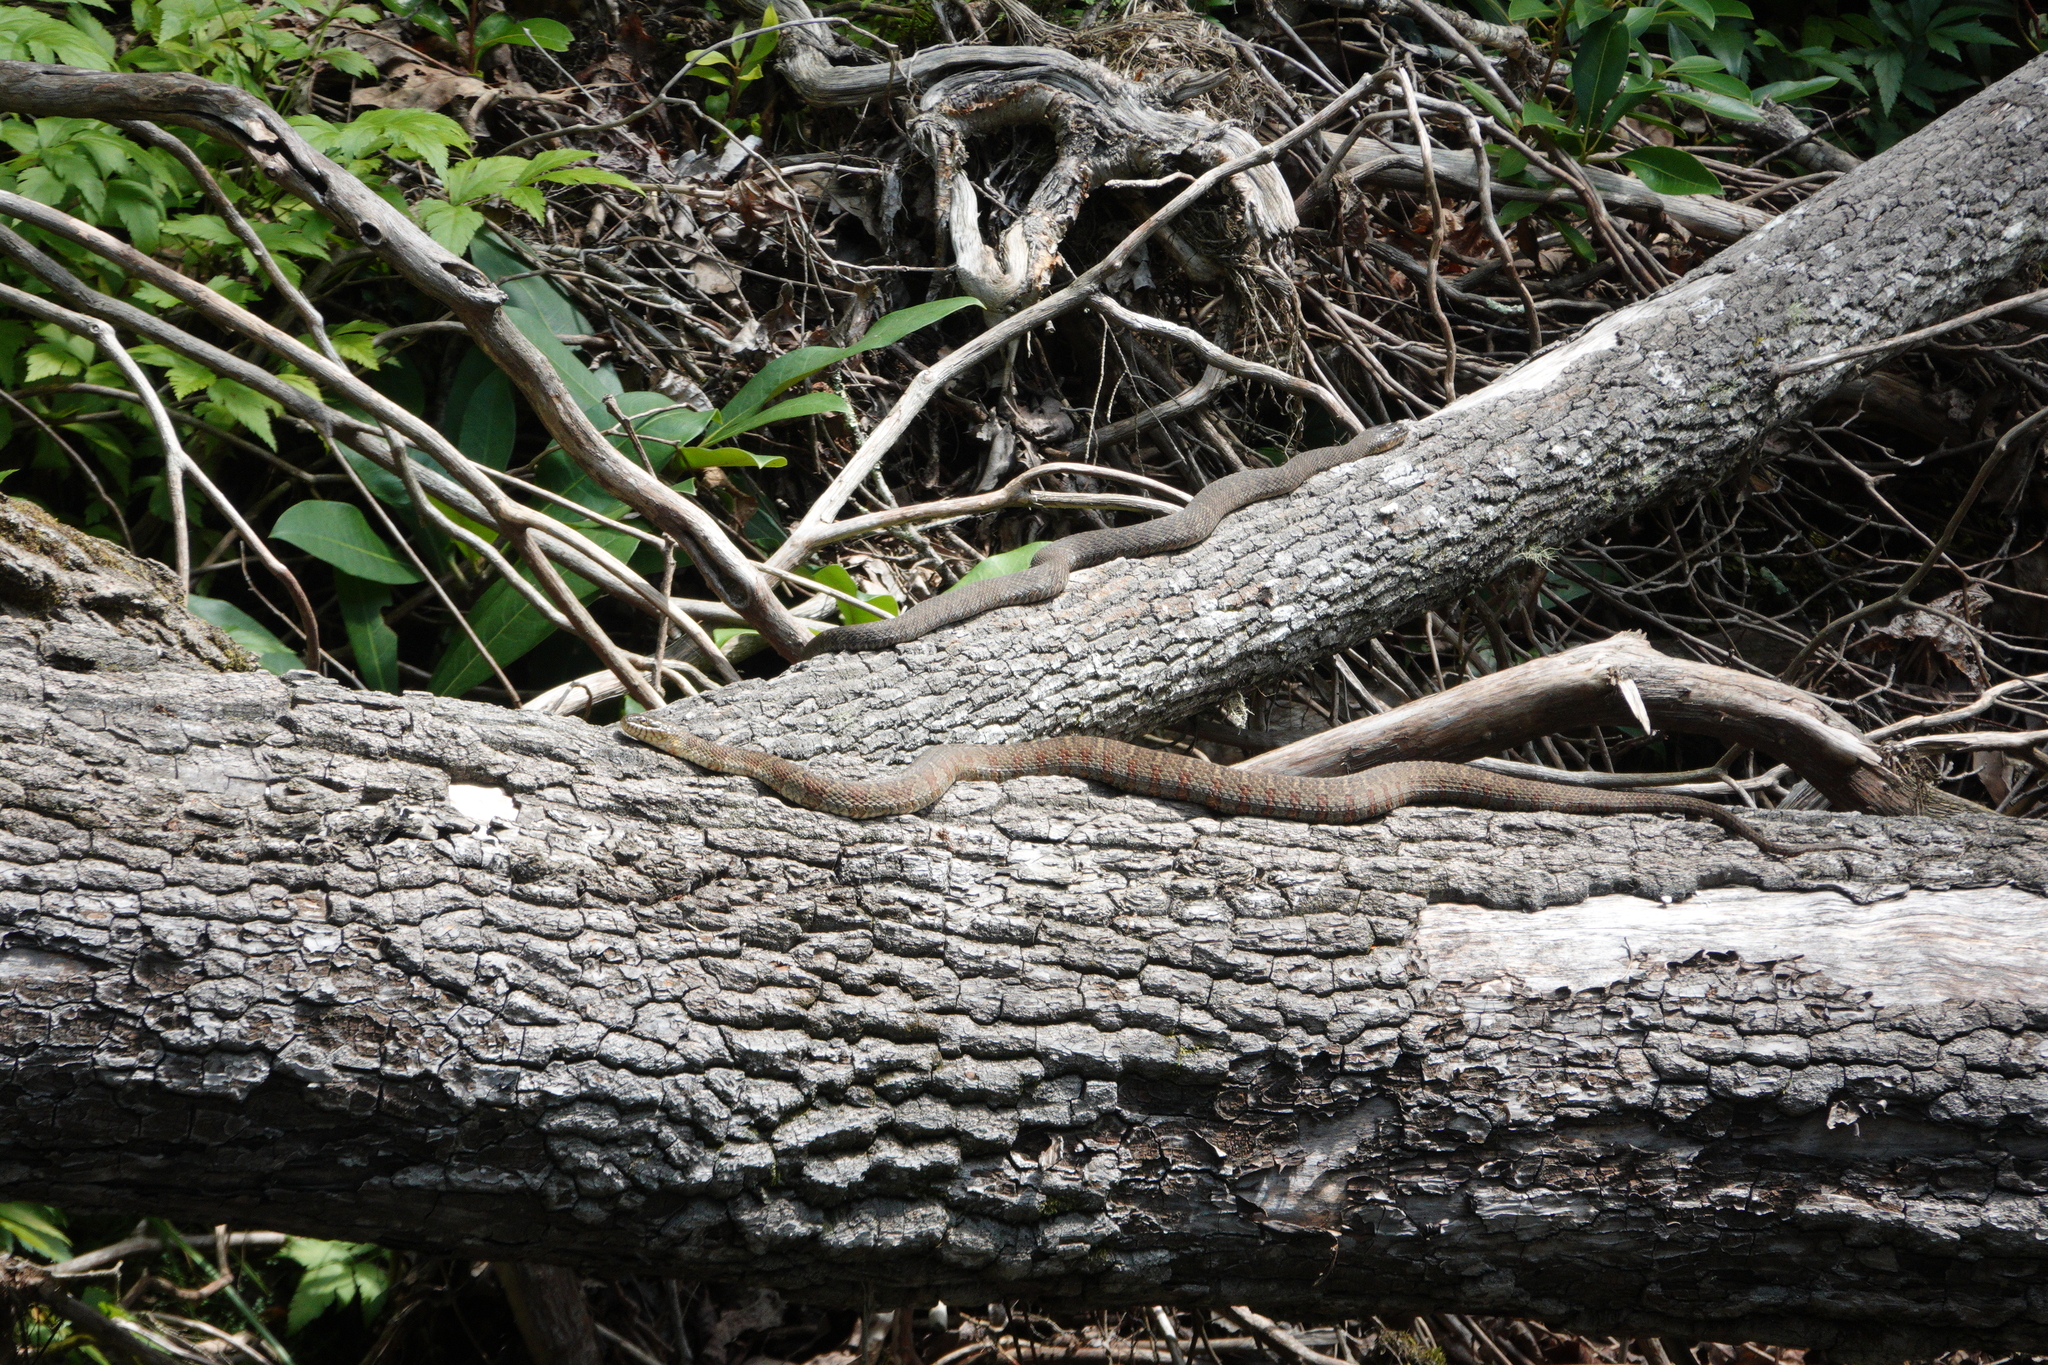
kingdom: Animalia
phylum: Chordata
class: Squamata
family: Colubridae
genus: Nerodia
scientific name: Nerodia sipedon
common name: Northern water snake
